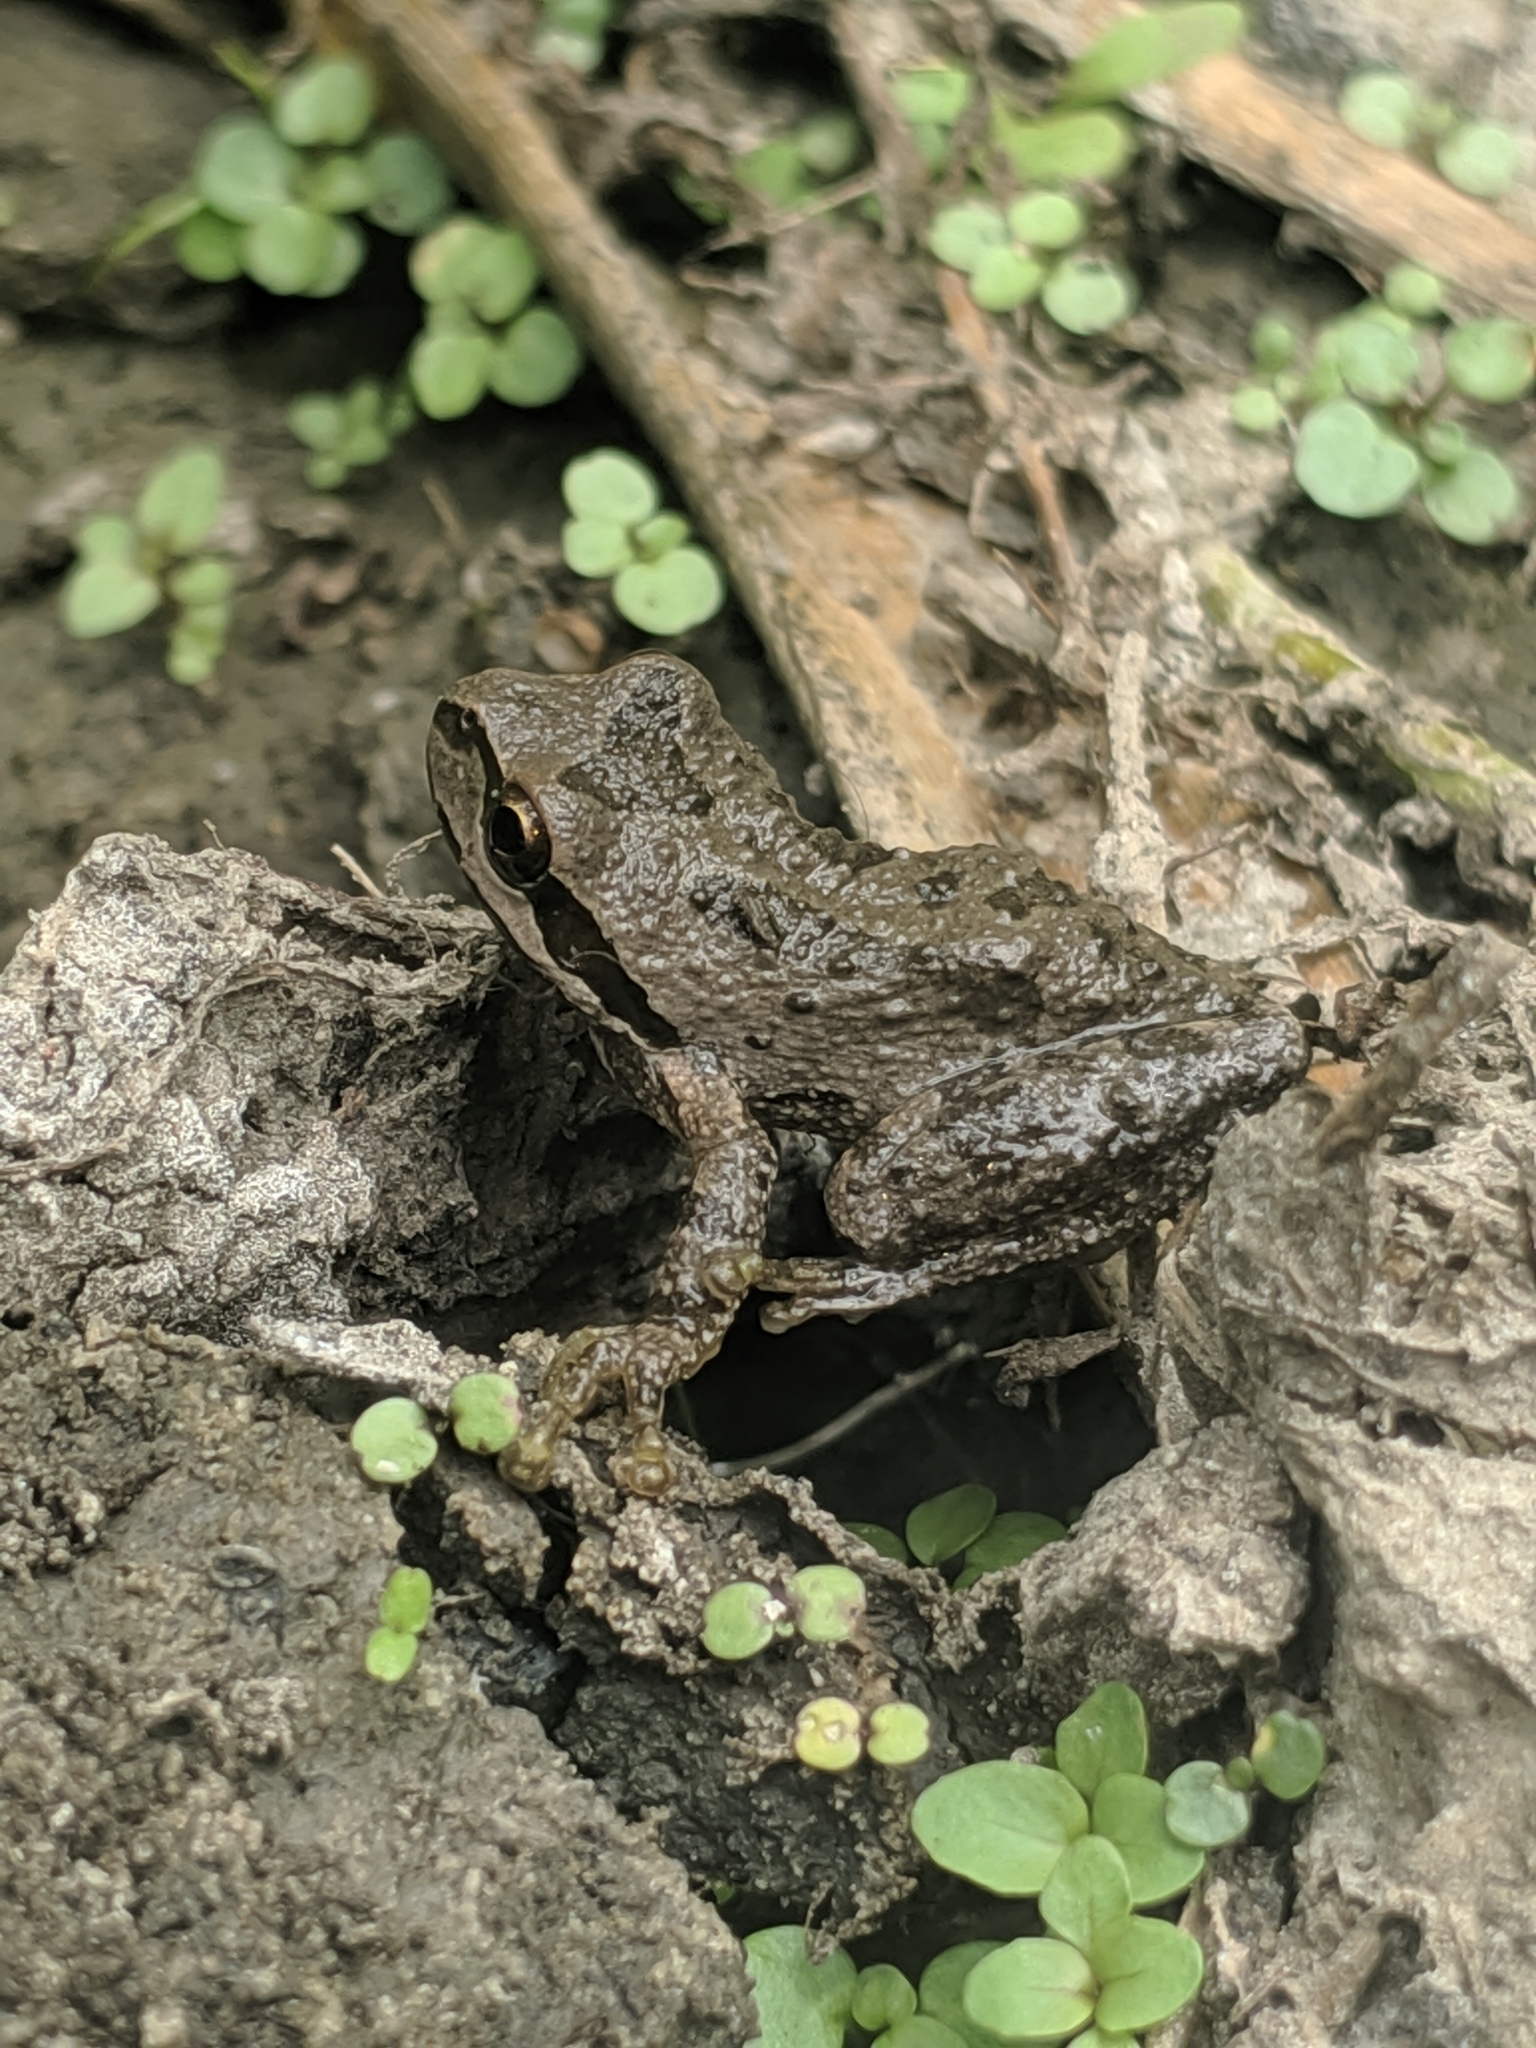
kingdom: Animalia
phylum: Chordata
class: Amphibia
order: Anura
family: Hylidae
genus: Pseudacris
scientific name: Pseudacris regilla
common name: Pacific chorus frog
